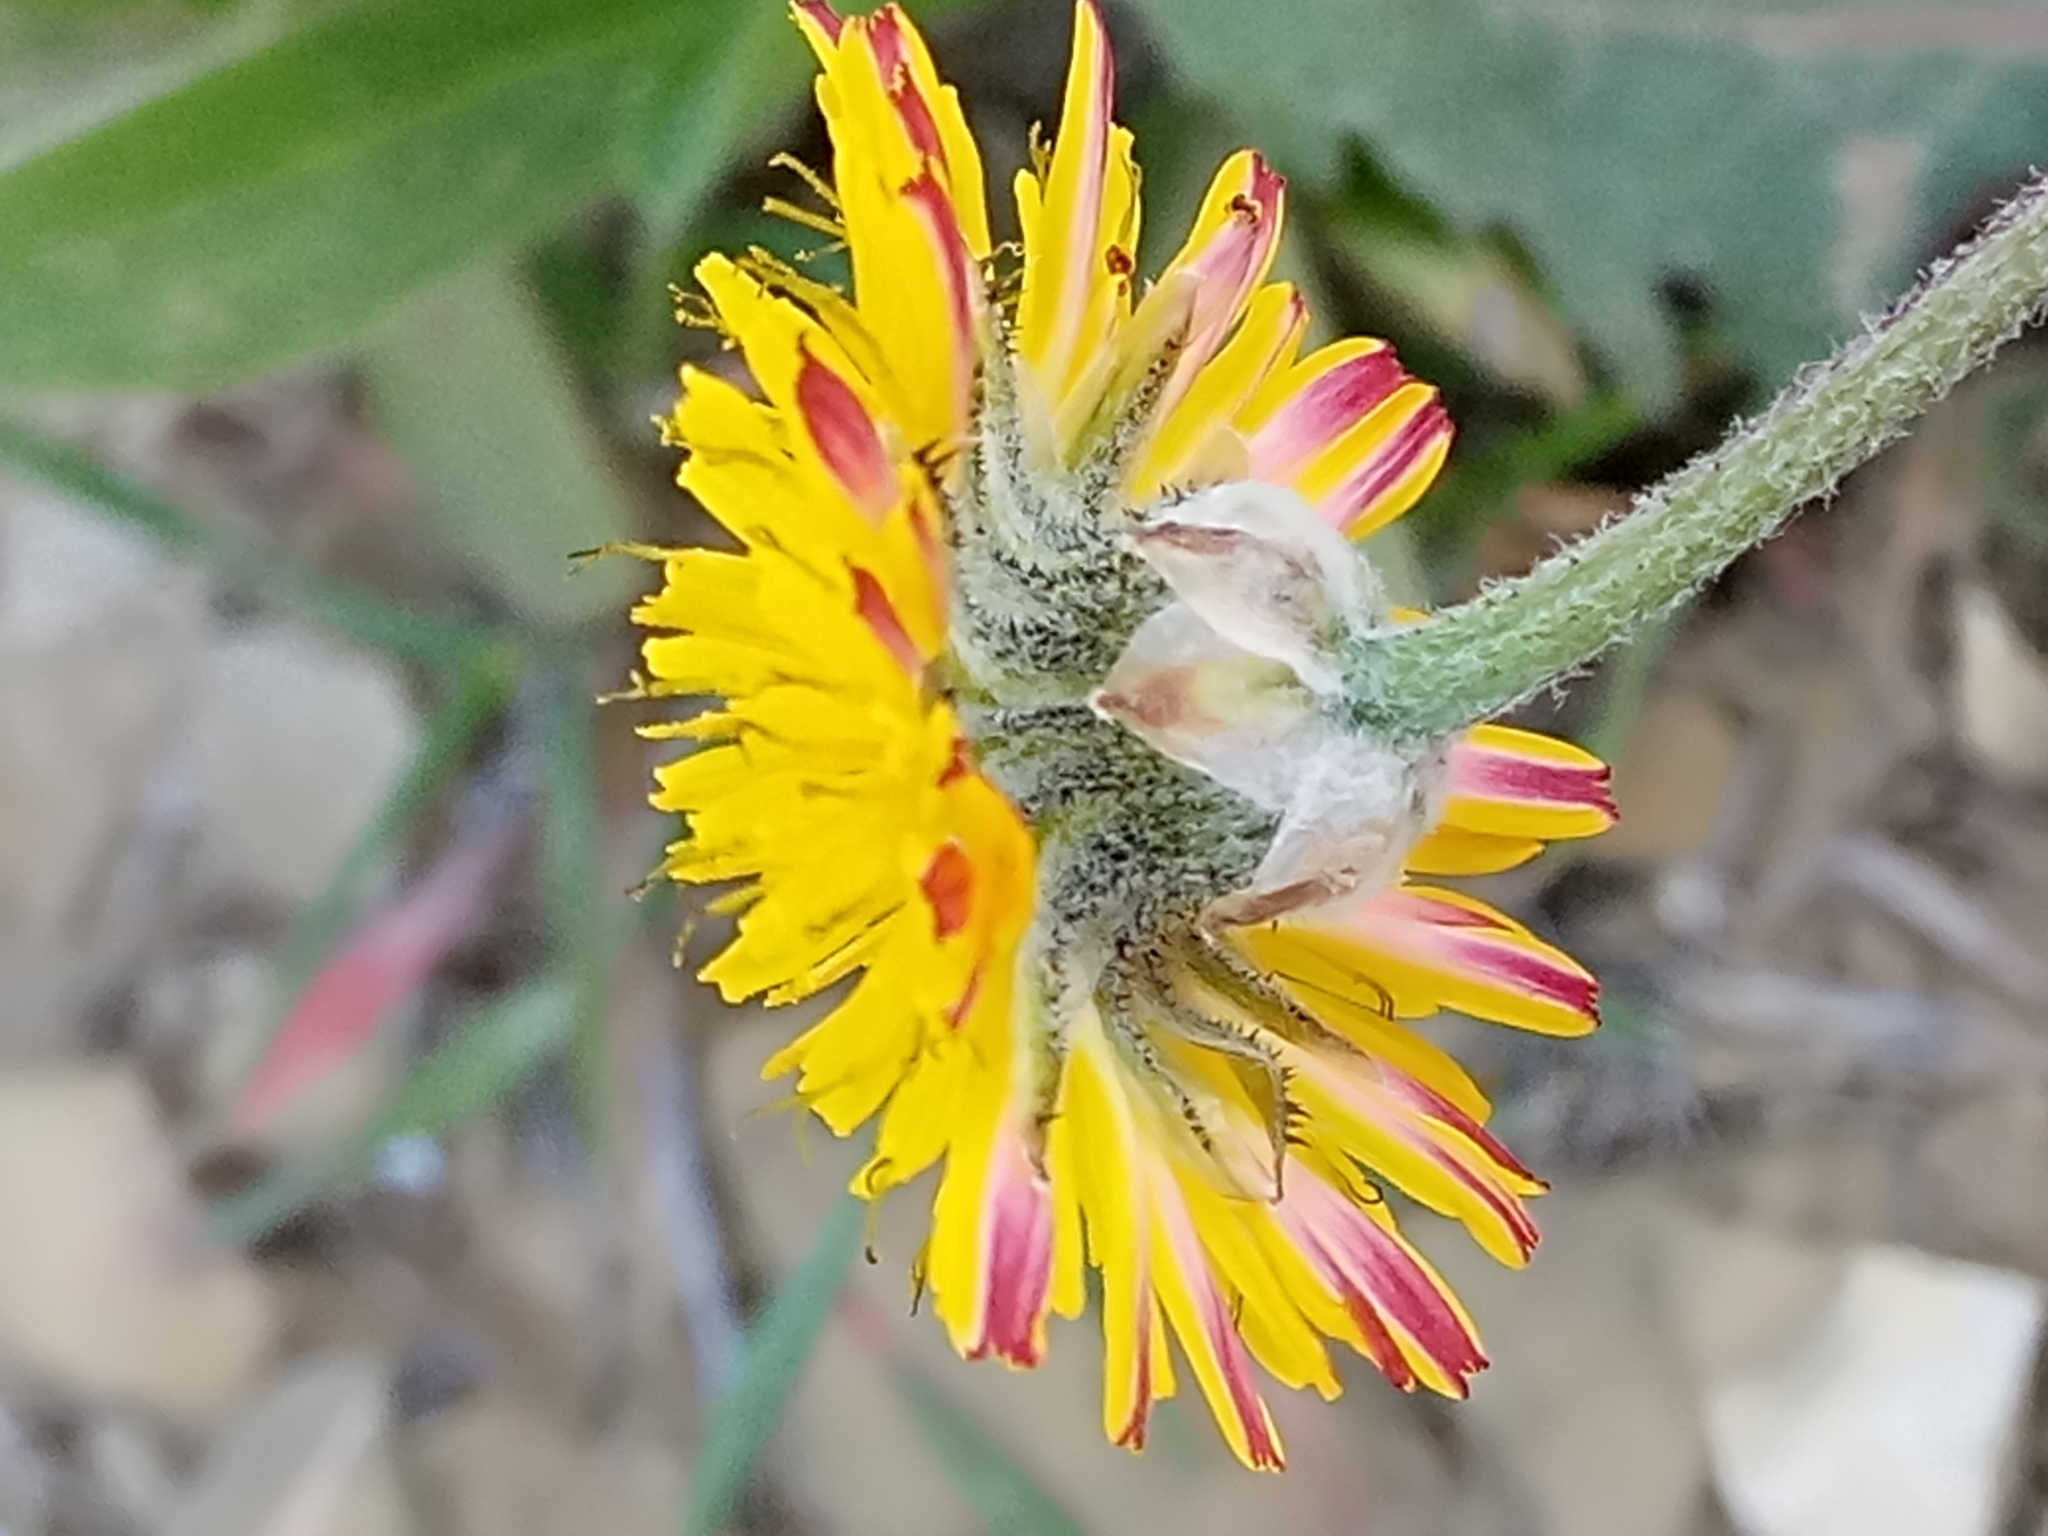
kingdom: Plantae
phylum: Tracheophyta
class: Magnoliopsida
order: Asterales
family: Asteraceae
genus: Crepis
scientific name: Crepis vesicaria
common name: Beaked hawksbeard
